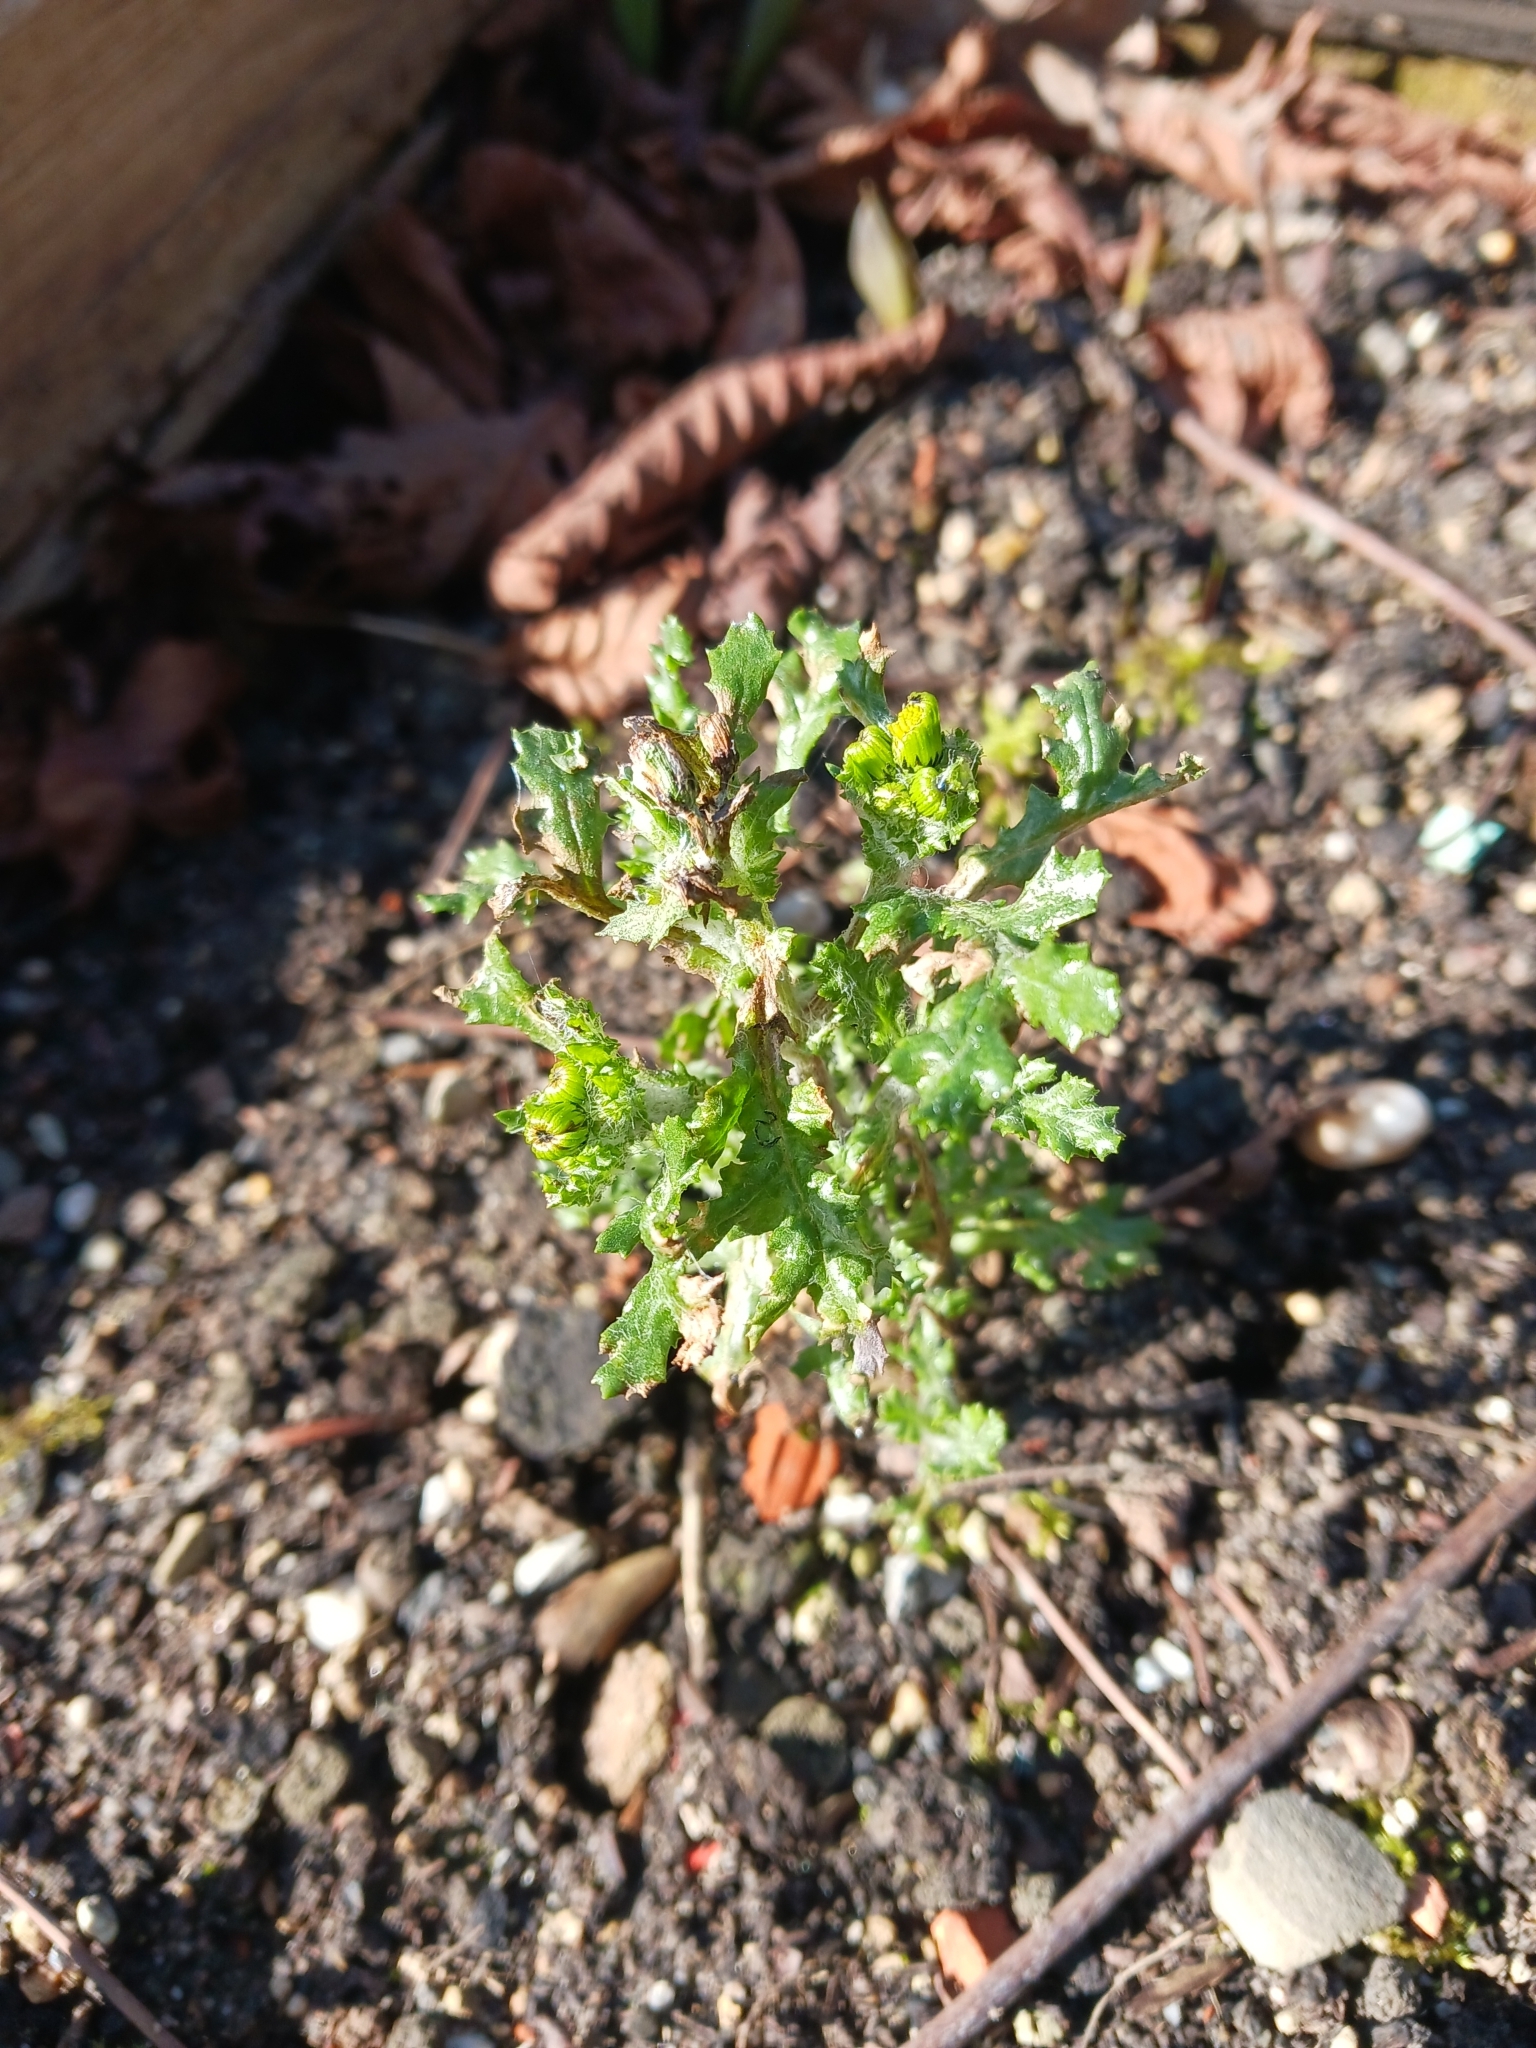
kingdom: Plantae
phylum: Tracheophyta
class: Magnoliopsida
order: Asterales
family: Asteraceae
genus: Senecio
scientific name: Senecio vulgaris
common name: Old-man-in-the-spring
